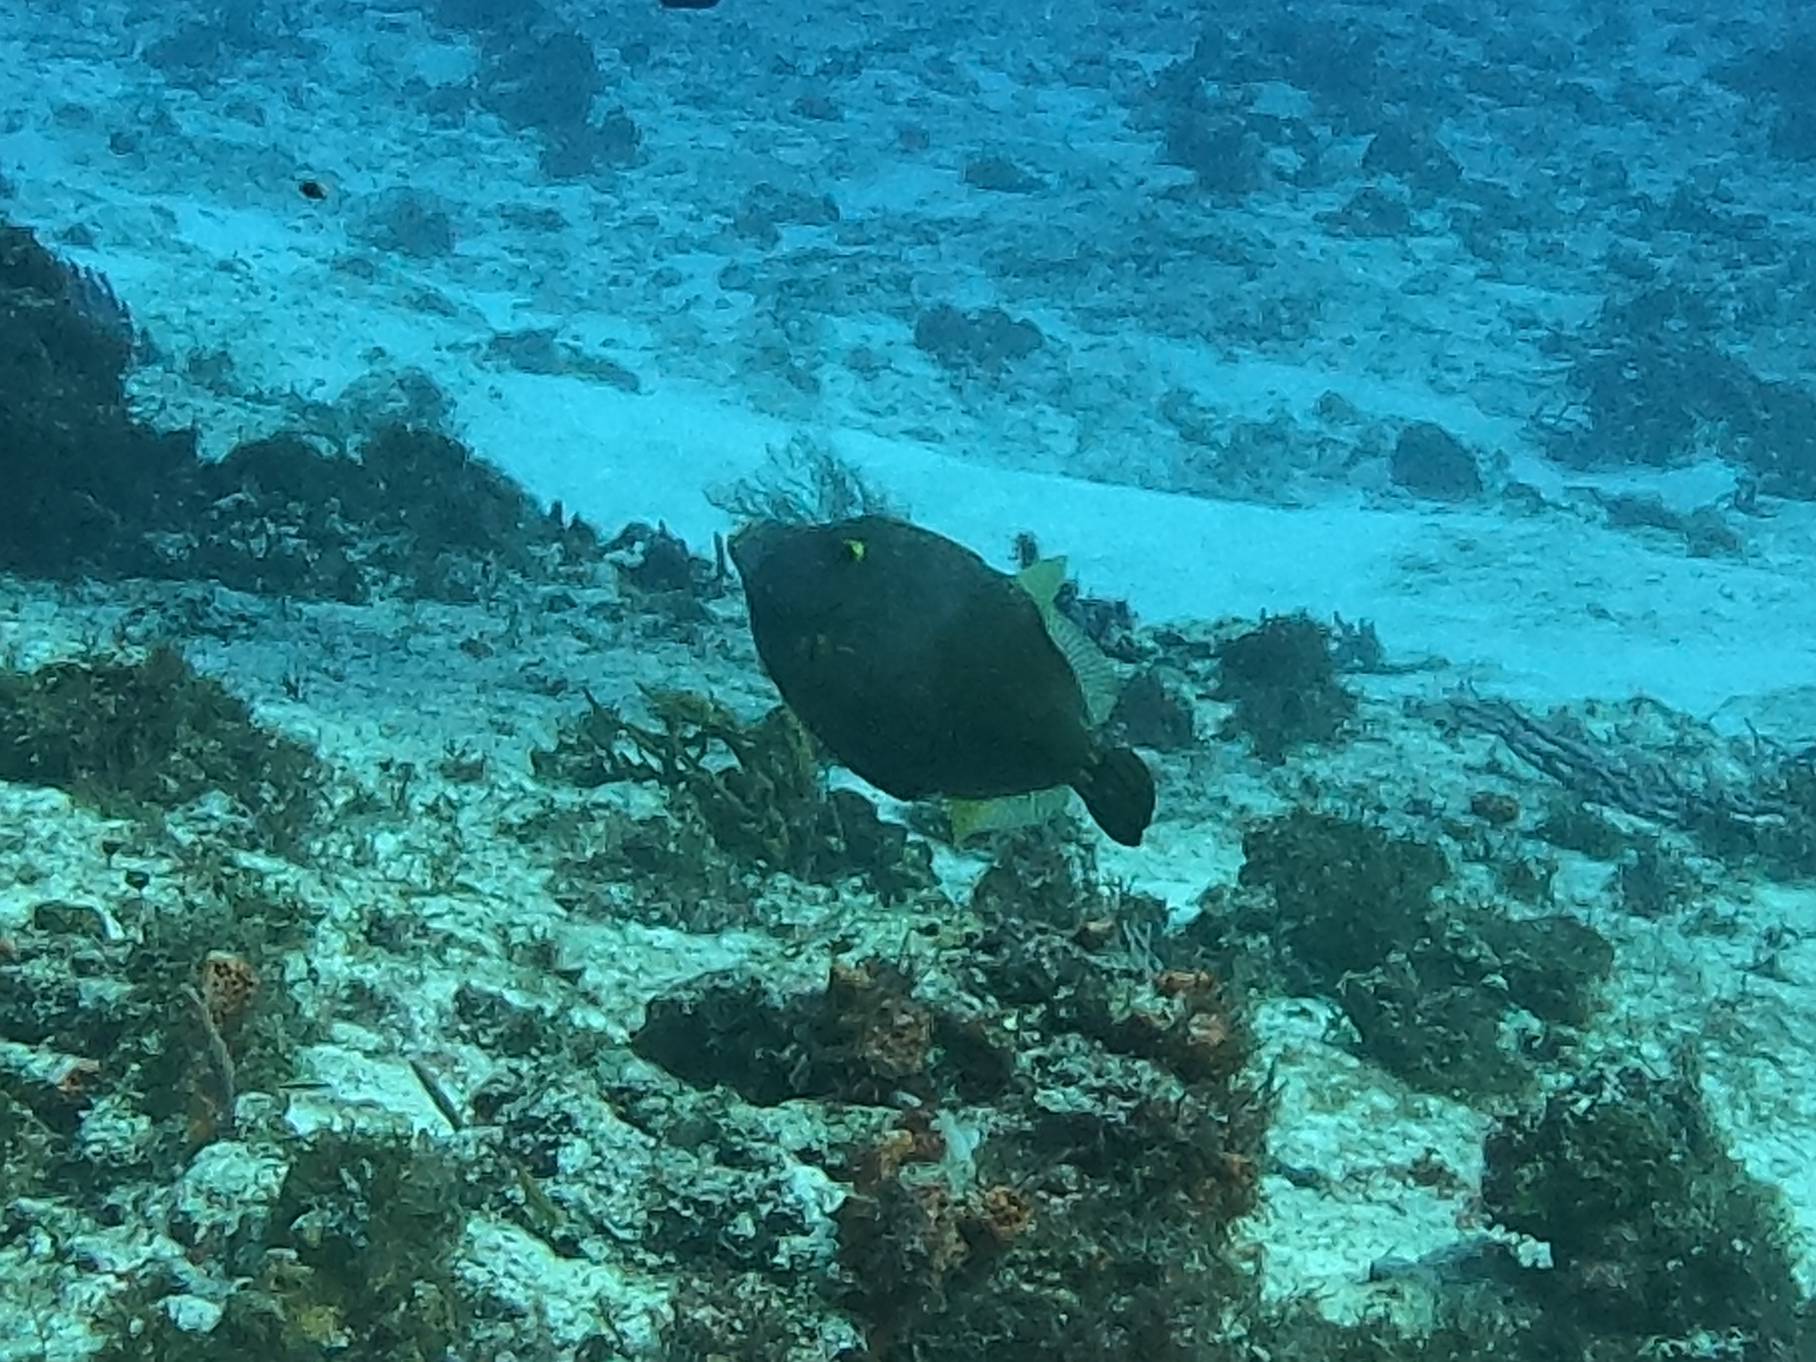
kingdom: Animalia
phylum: Chordata
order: Tetraodontiformes
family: Monacanthidae
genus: Cantherhines
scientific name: Cantherhines macrocerus
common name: Whitespotted filefish
